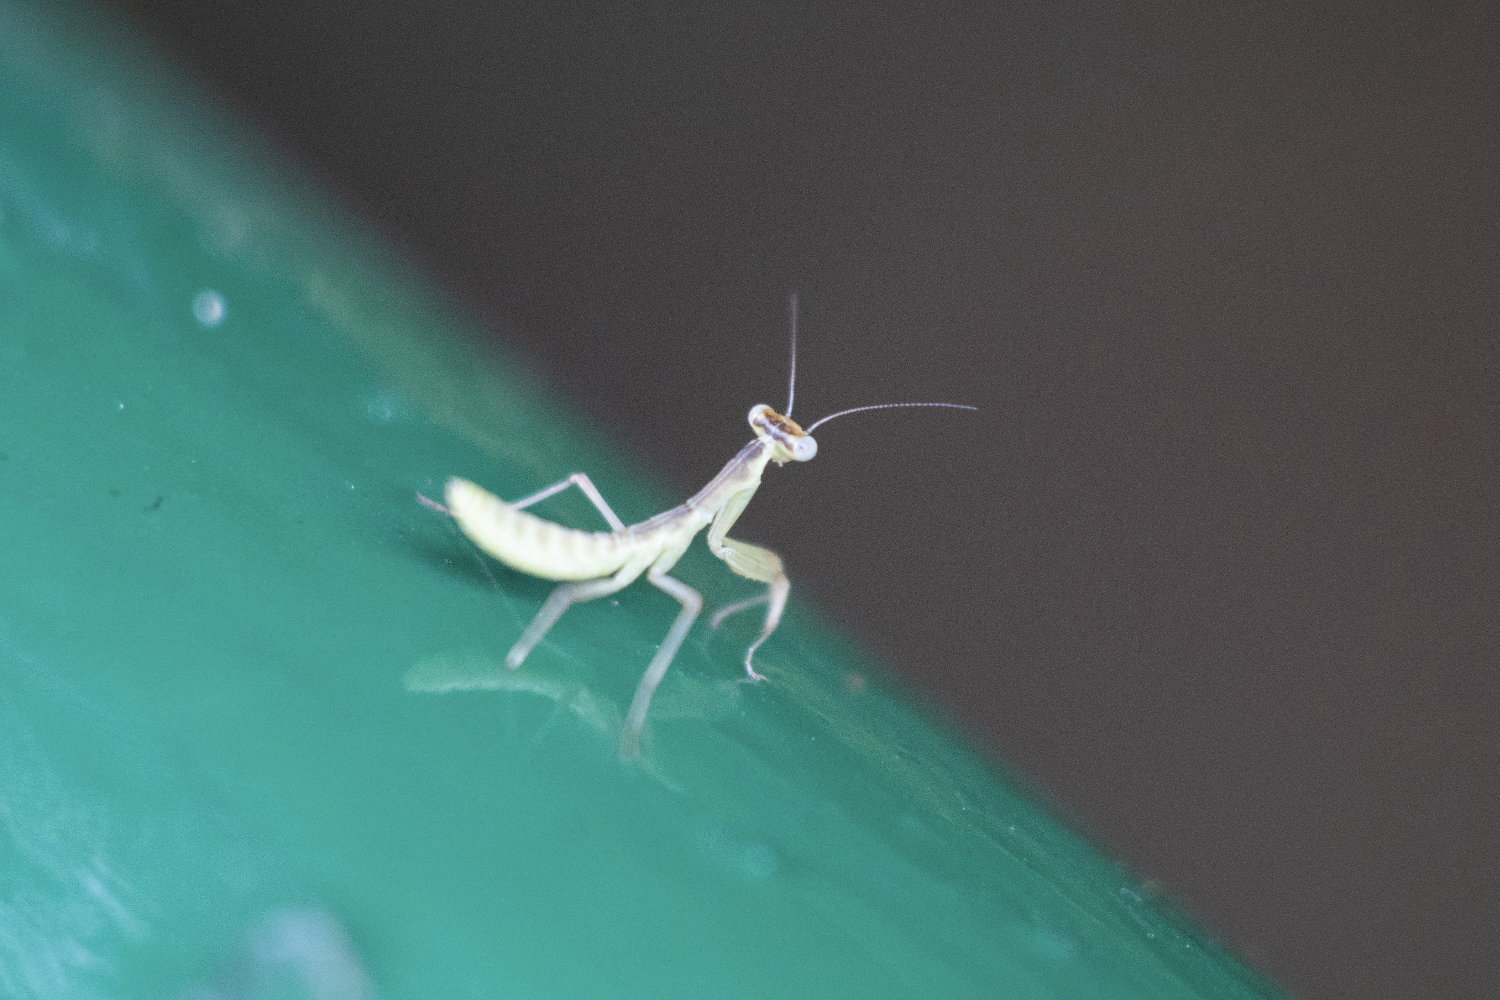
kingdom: Animalia
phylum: Arthropoda
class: Insecta
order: Mantodea
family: Mantidae
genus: Hierodula
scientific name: Hierodula patellifera
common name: Asian mantis
